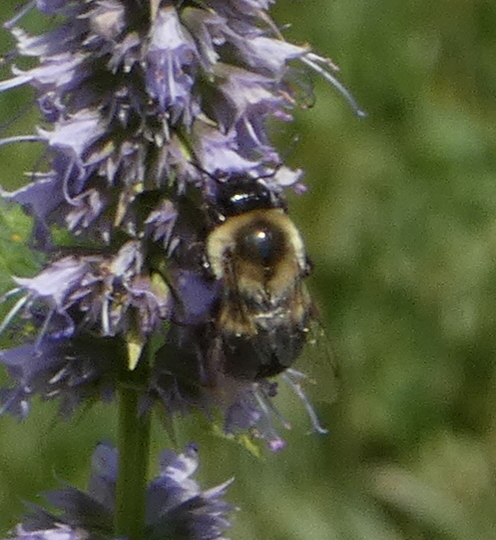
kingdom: Animalia
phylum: Arthropoda
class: Insecta
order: Hymenoptera
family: Apidae
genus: Bombus
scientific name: Bombus impatiens
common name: Common eastern bumble bee
